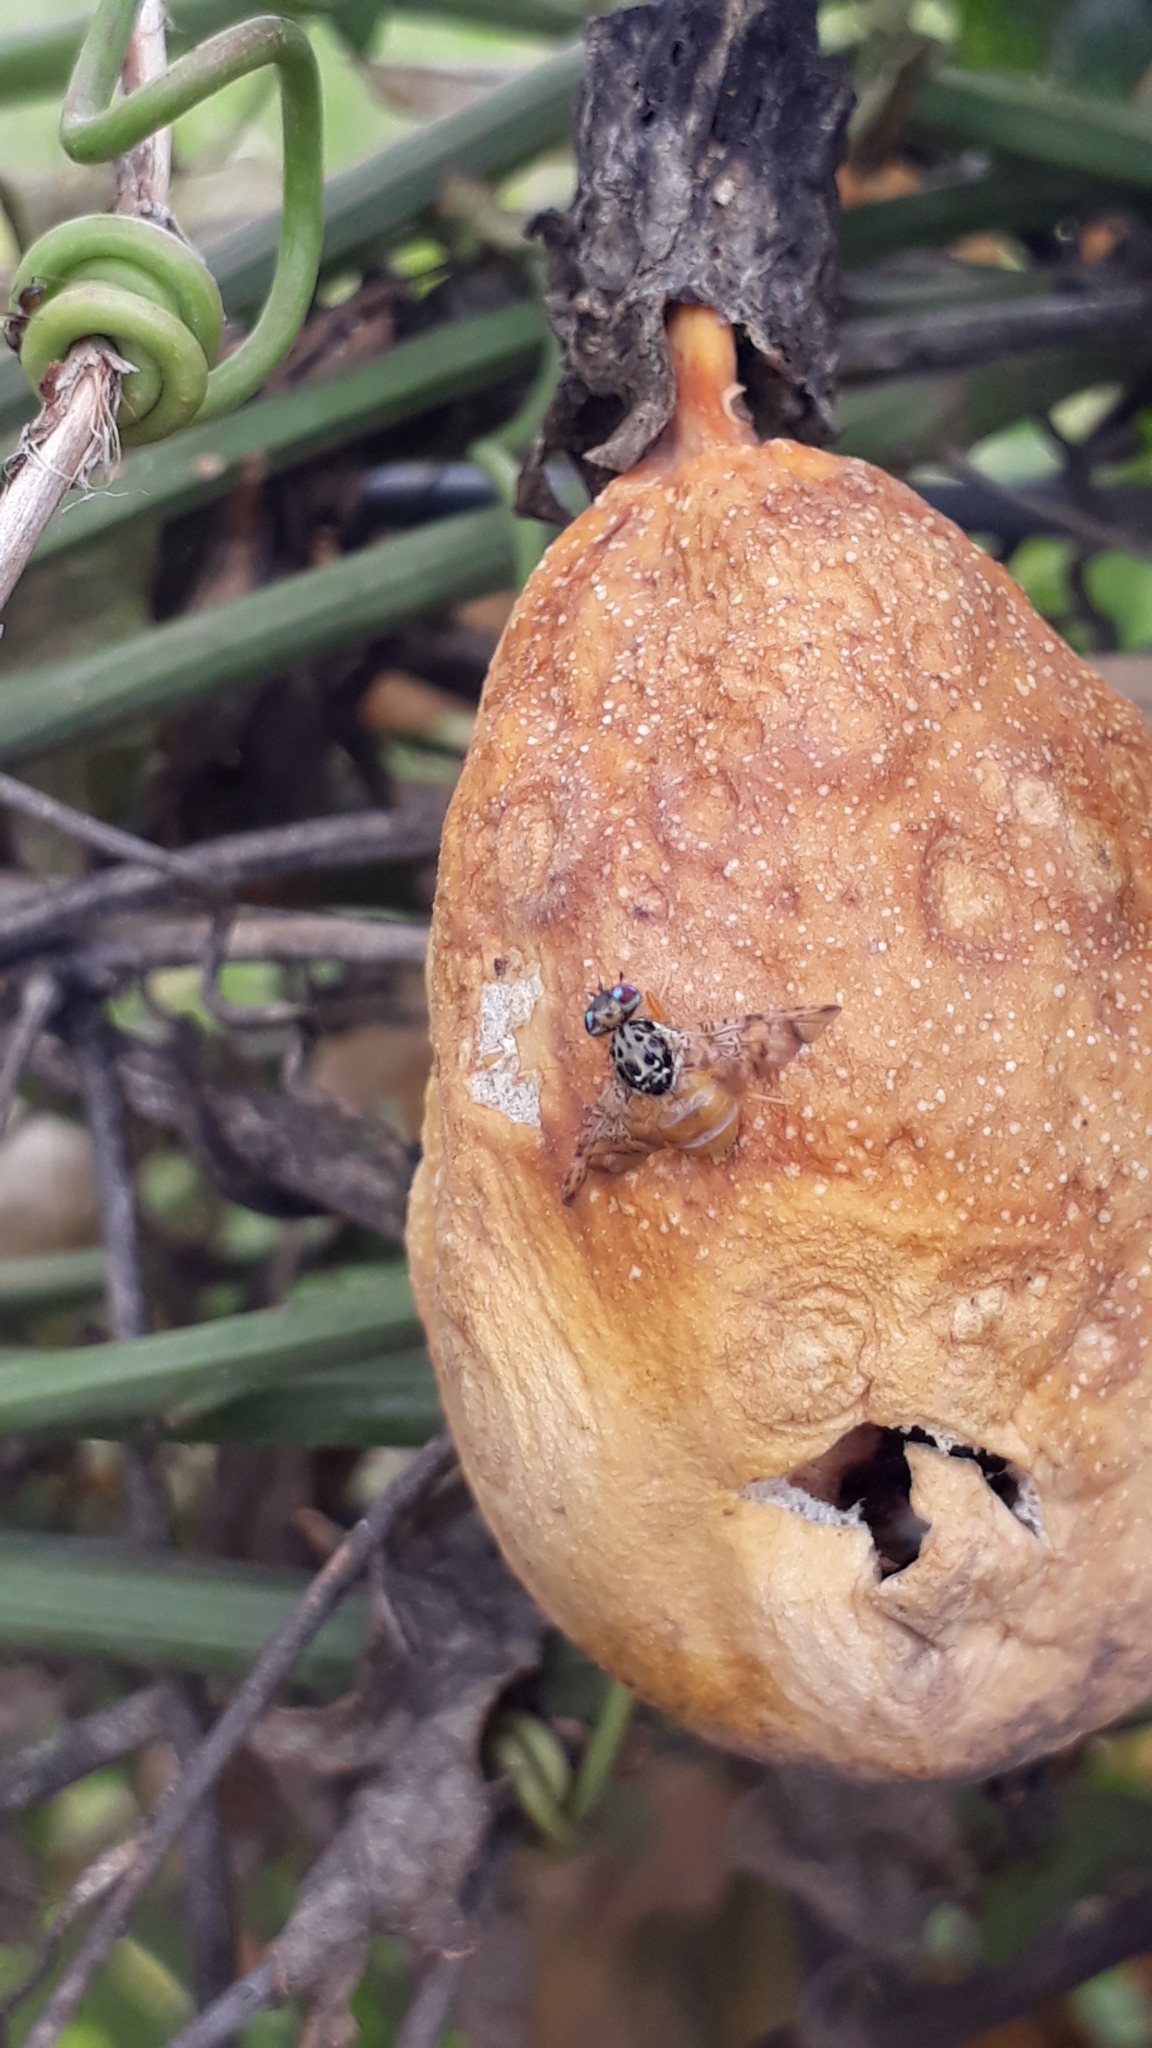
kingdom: Animalia
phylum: Arthropoda
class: Insecta
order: Diptera
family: Tephritidae
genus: Ceratitis
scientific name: Ceratitis capitata
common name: Mediterranean fruit fly
